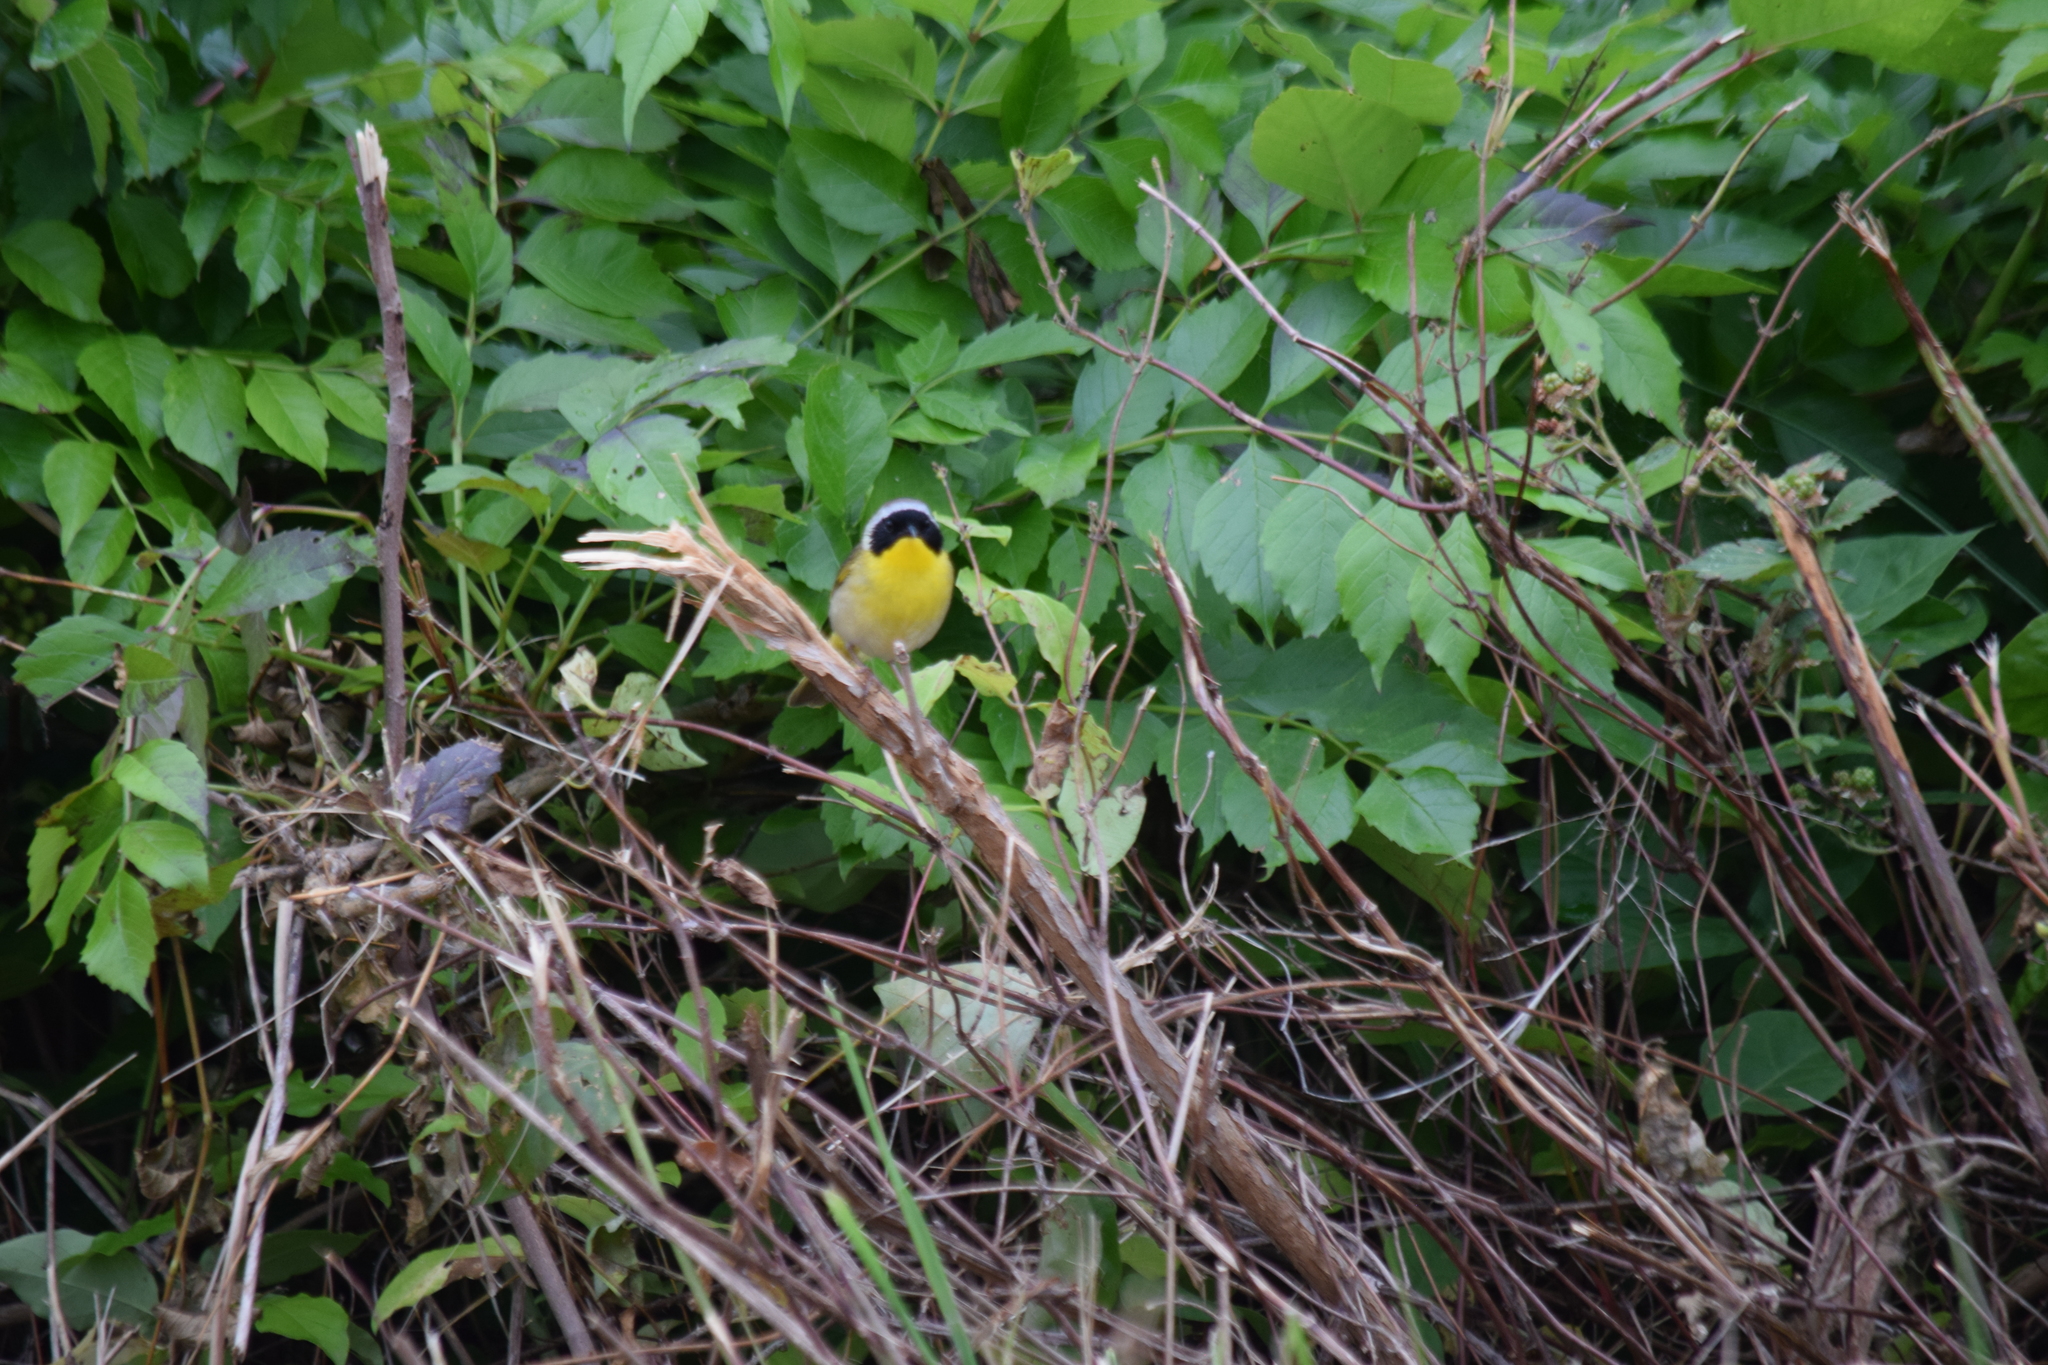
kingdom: Animalia
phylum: Chordata
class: Aves
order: Passeriformes
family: Parulidae
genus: Geothlypis
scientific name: Geothlypis trichas
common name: Common yellowthroat
